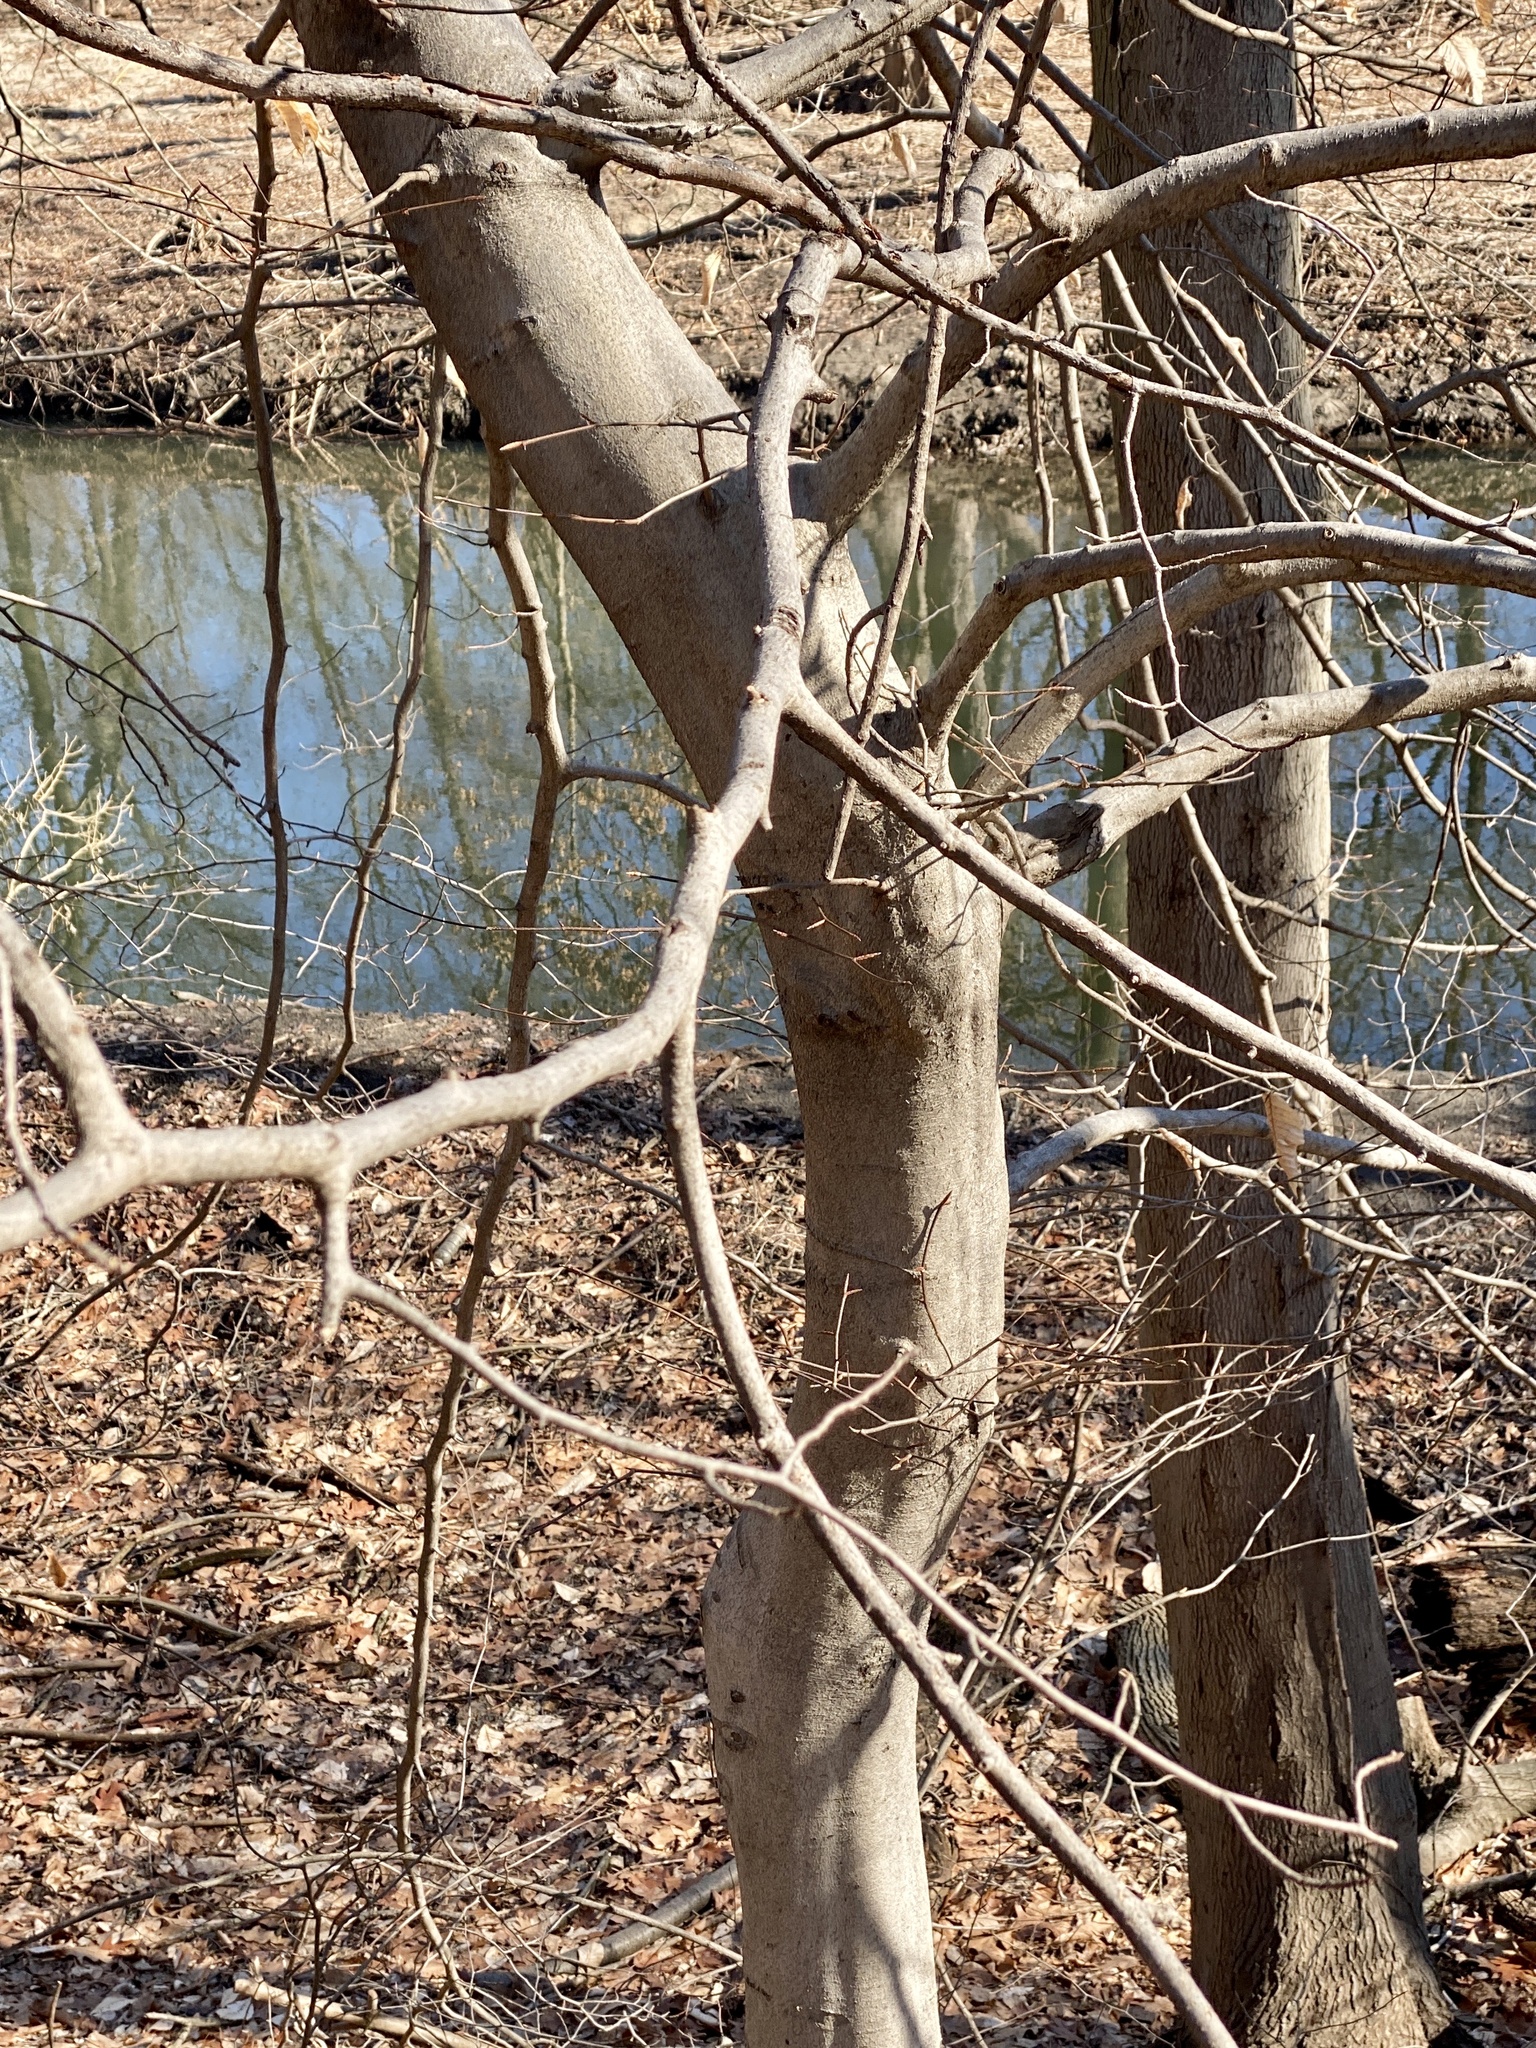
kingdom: Plantae
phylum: Tracheophyta
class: Magnoliopsida
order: Fagales
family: Fagaceae
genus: Fagus
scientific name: Fagus grandifolia
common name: American beech
